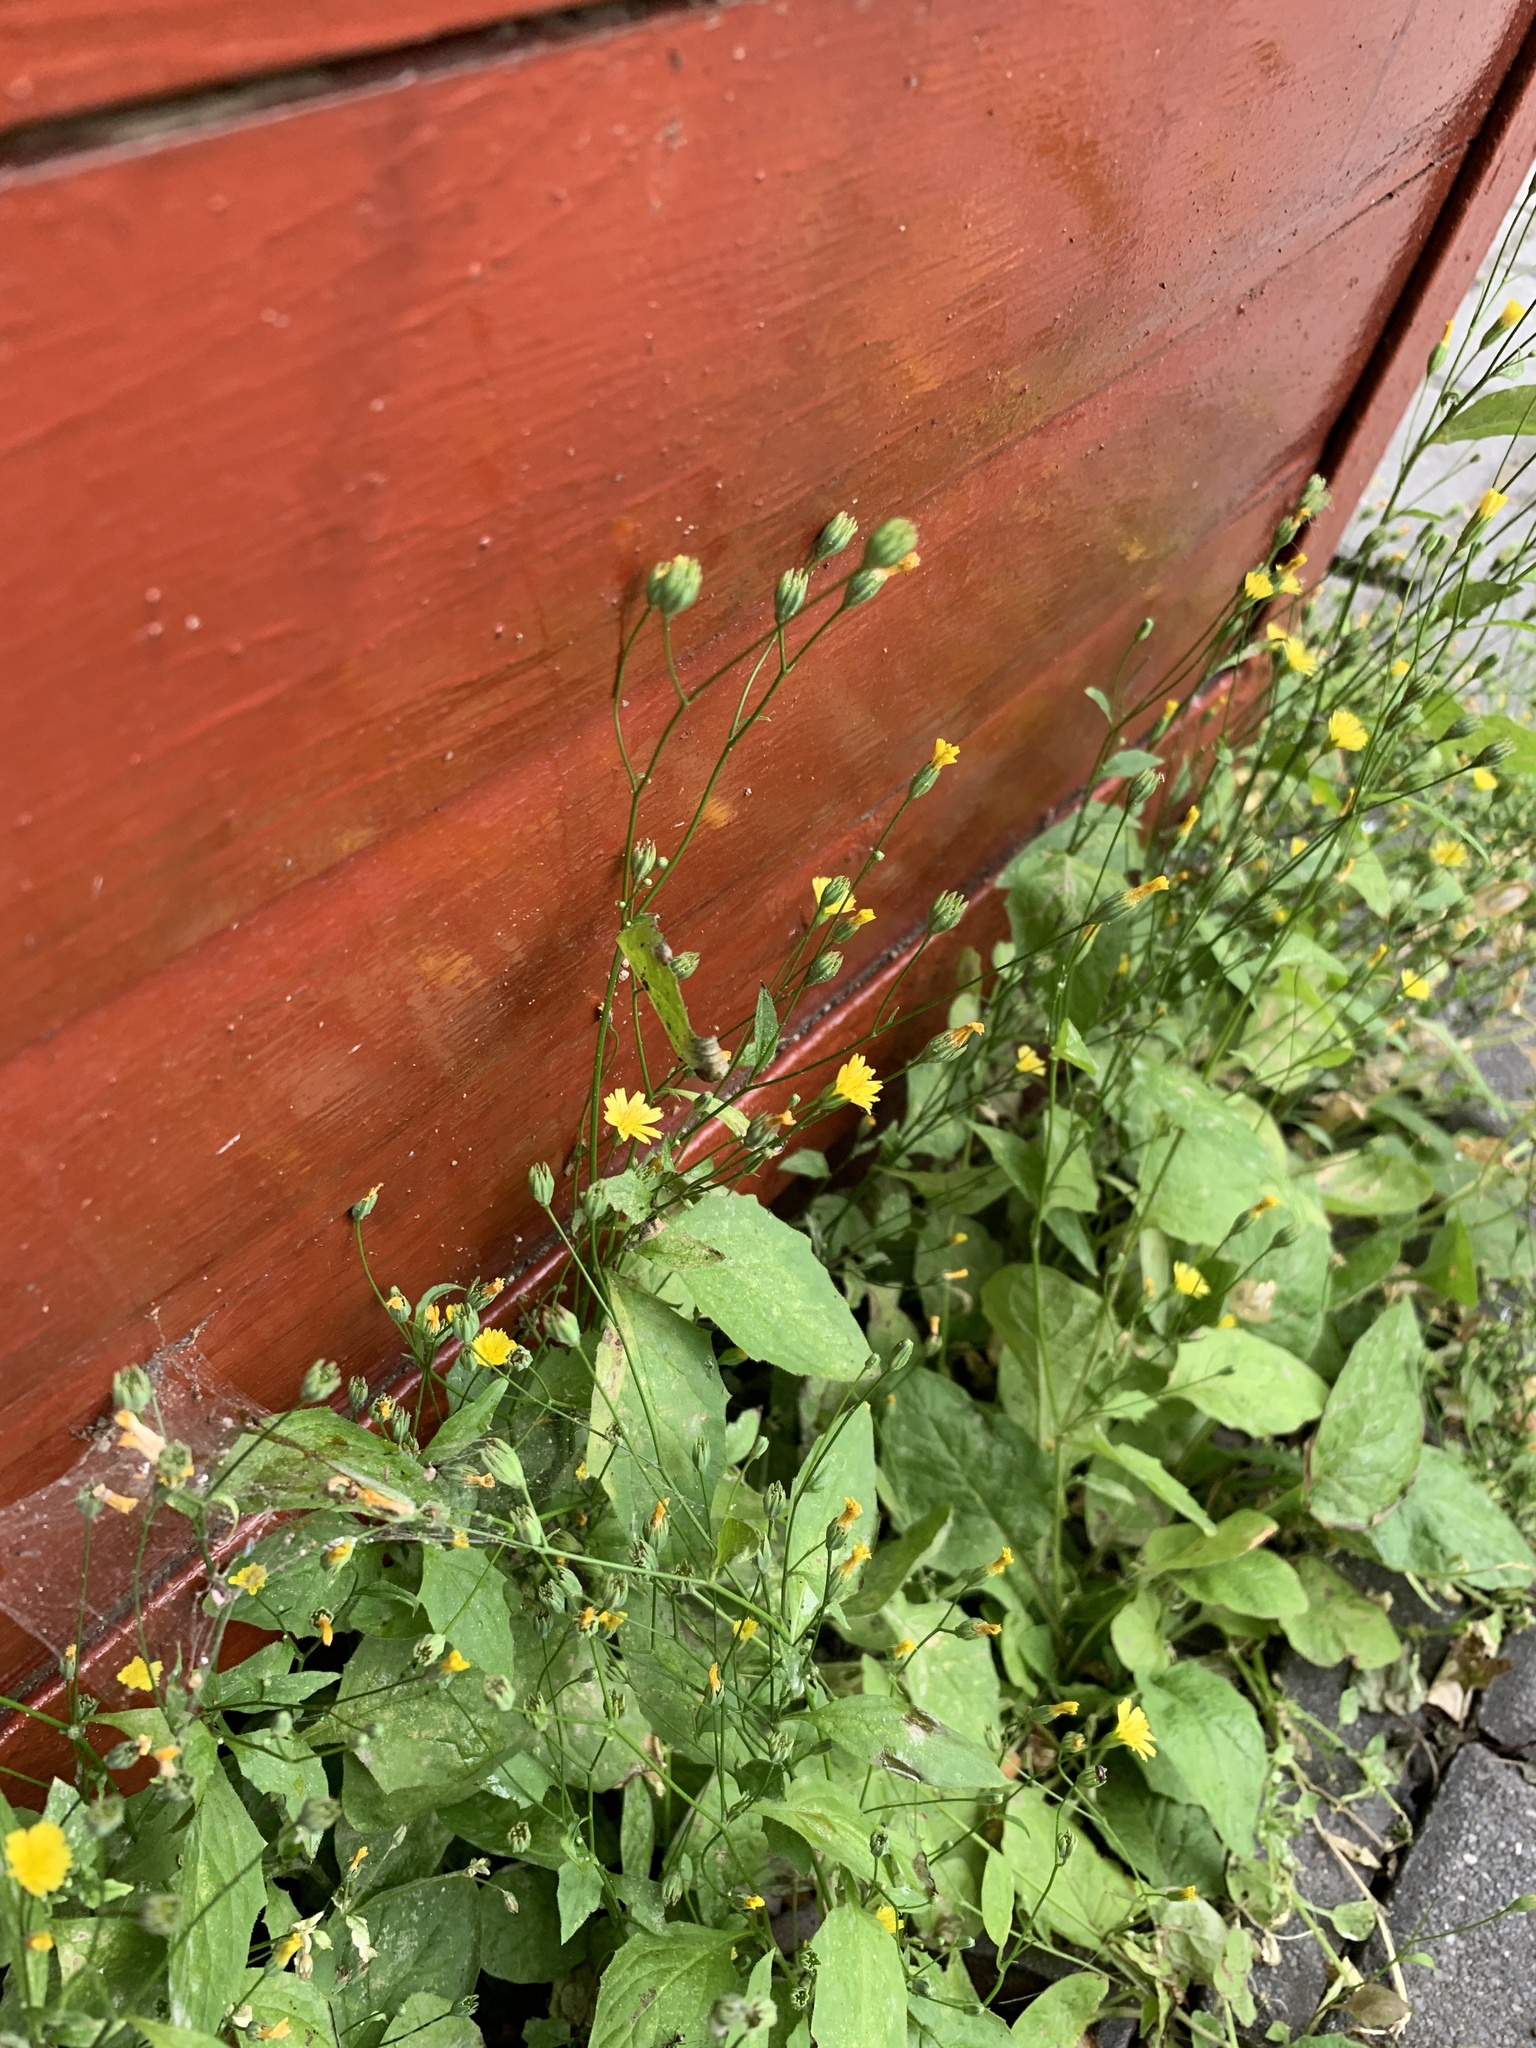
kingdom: Plantae
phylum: Tracheophyta
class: Magnoliopsida
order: Asterales
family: Asteraceae
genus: Lapsana
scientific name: Lapsana communis
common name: Nipplewort
